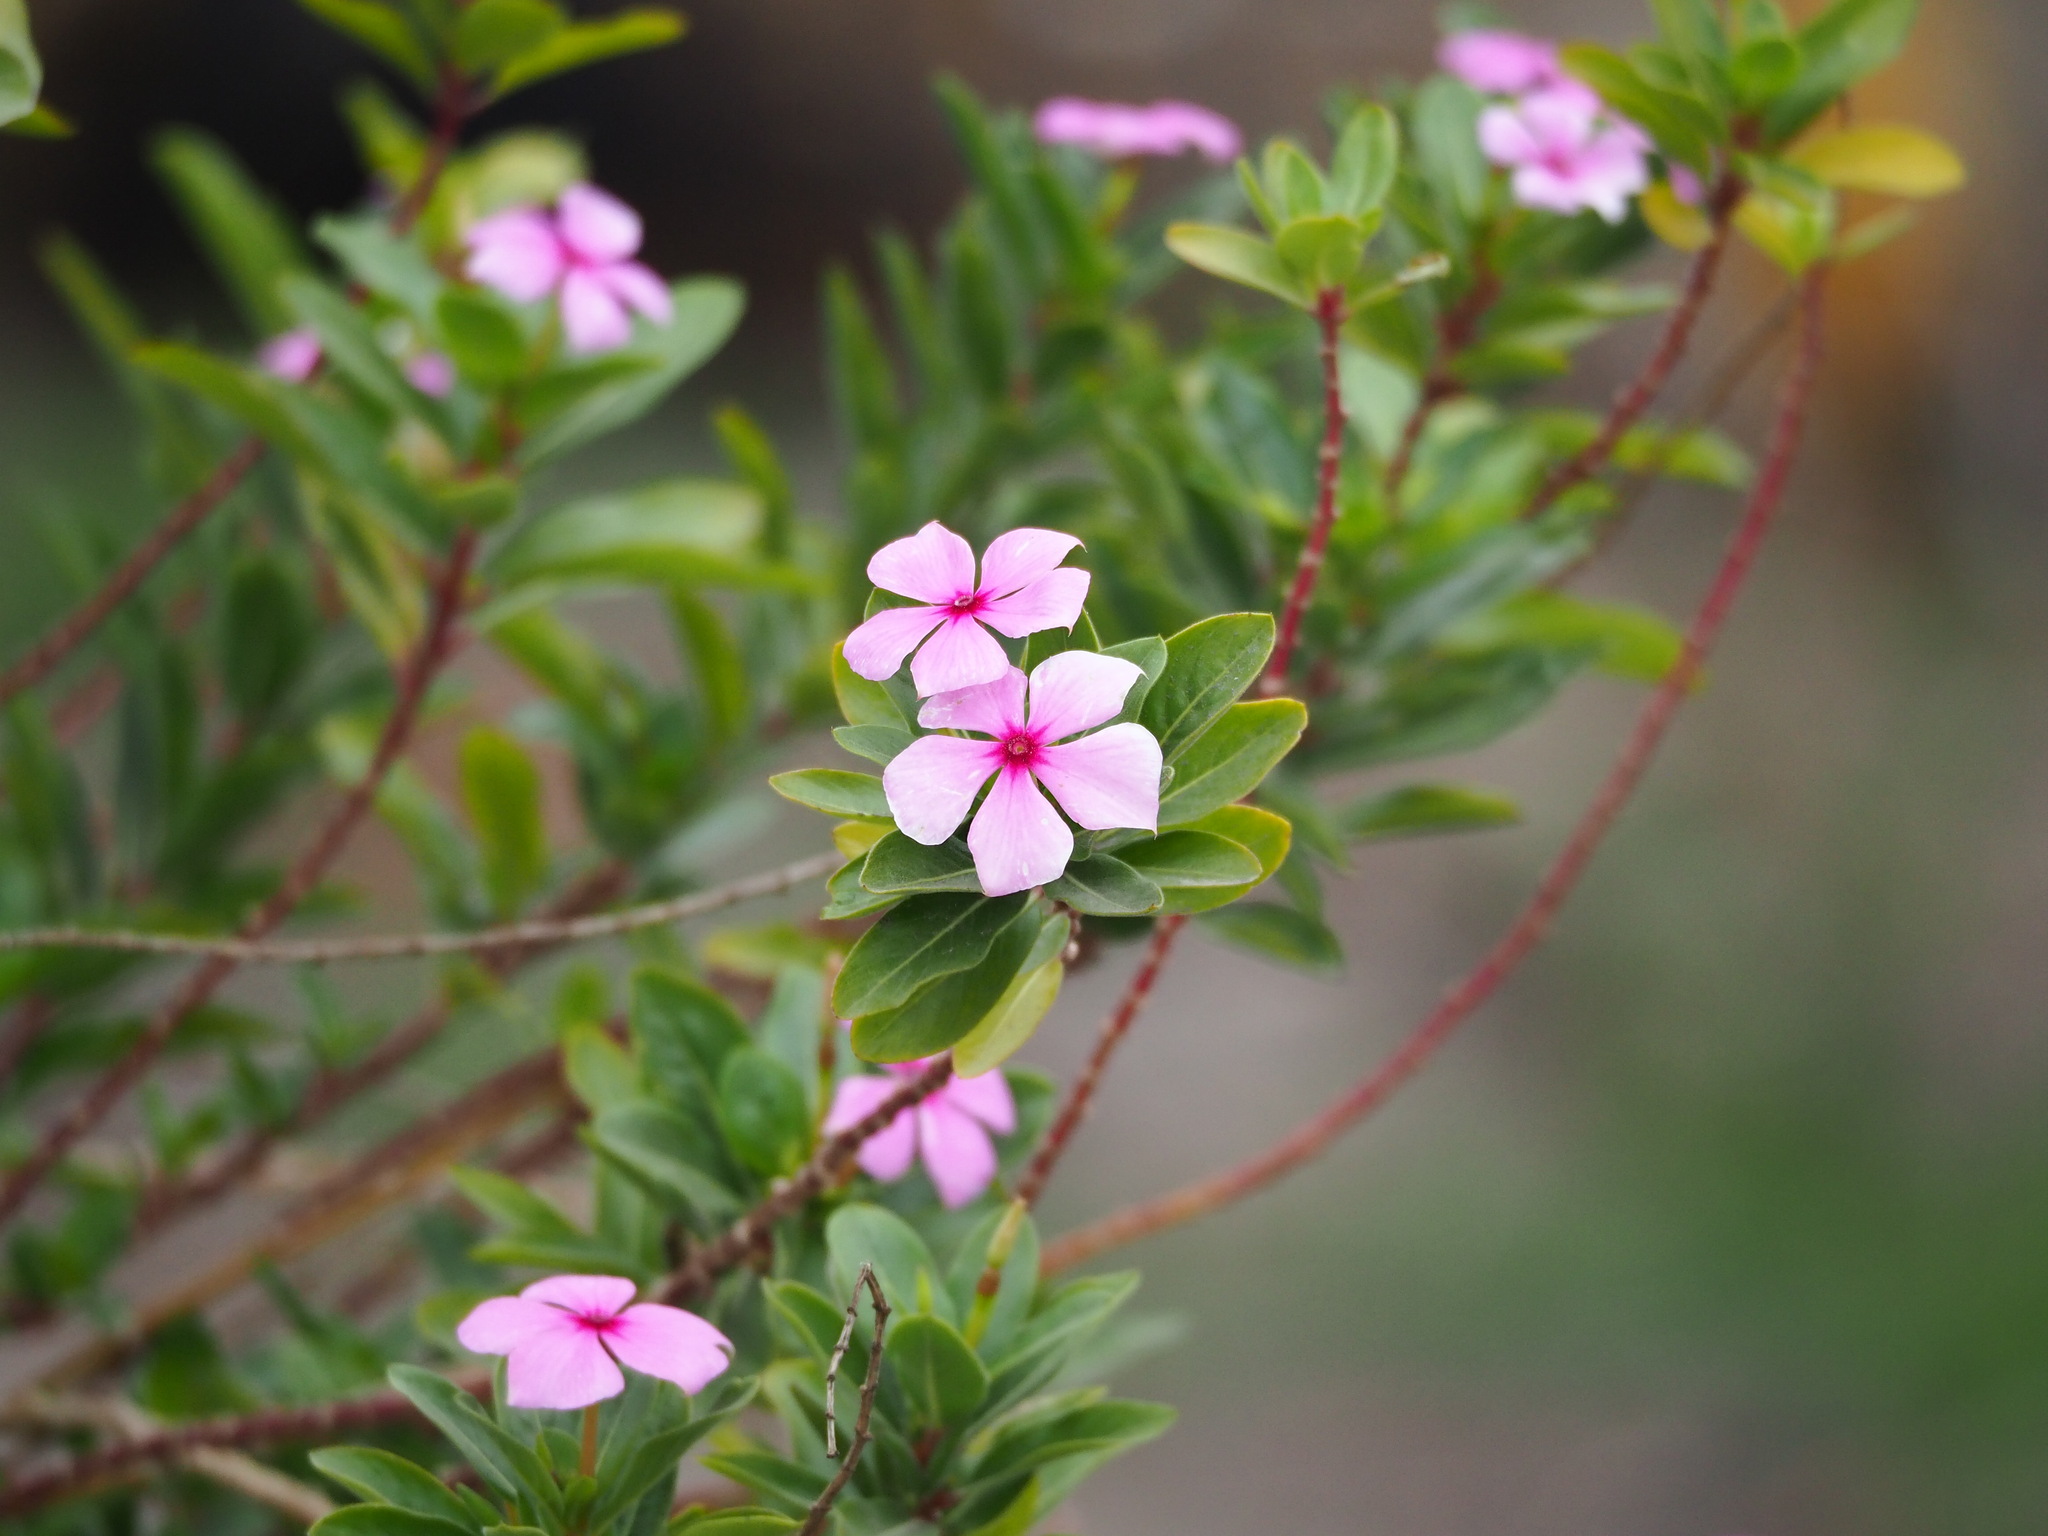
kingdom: Plantae
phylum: Tracheophyta
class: Magnoliopsida
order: Gentianales
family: Apocynaceae
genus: Catharanthus
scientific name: Catharanthus roseus
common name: Madagascar periwinkle
